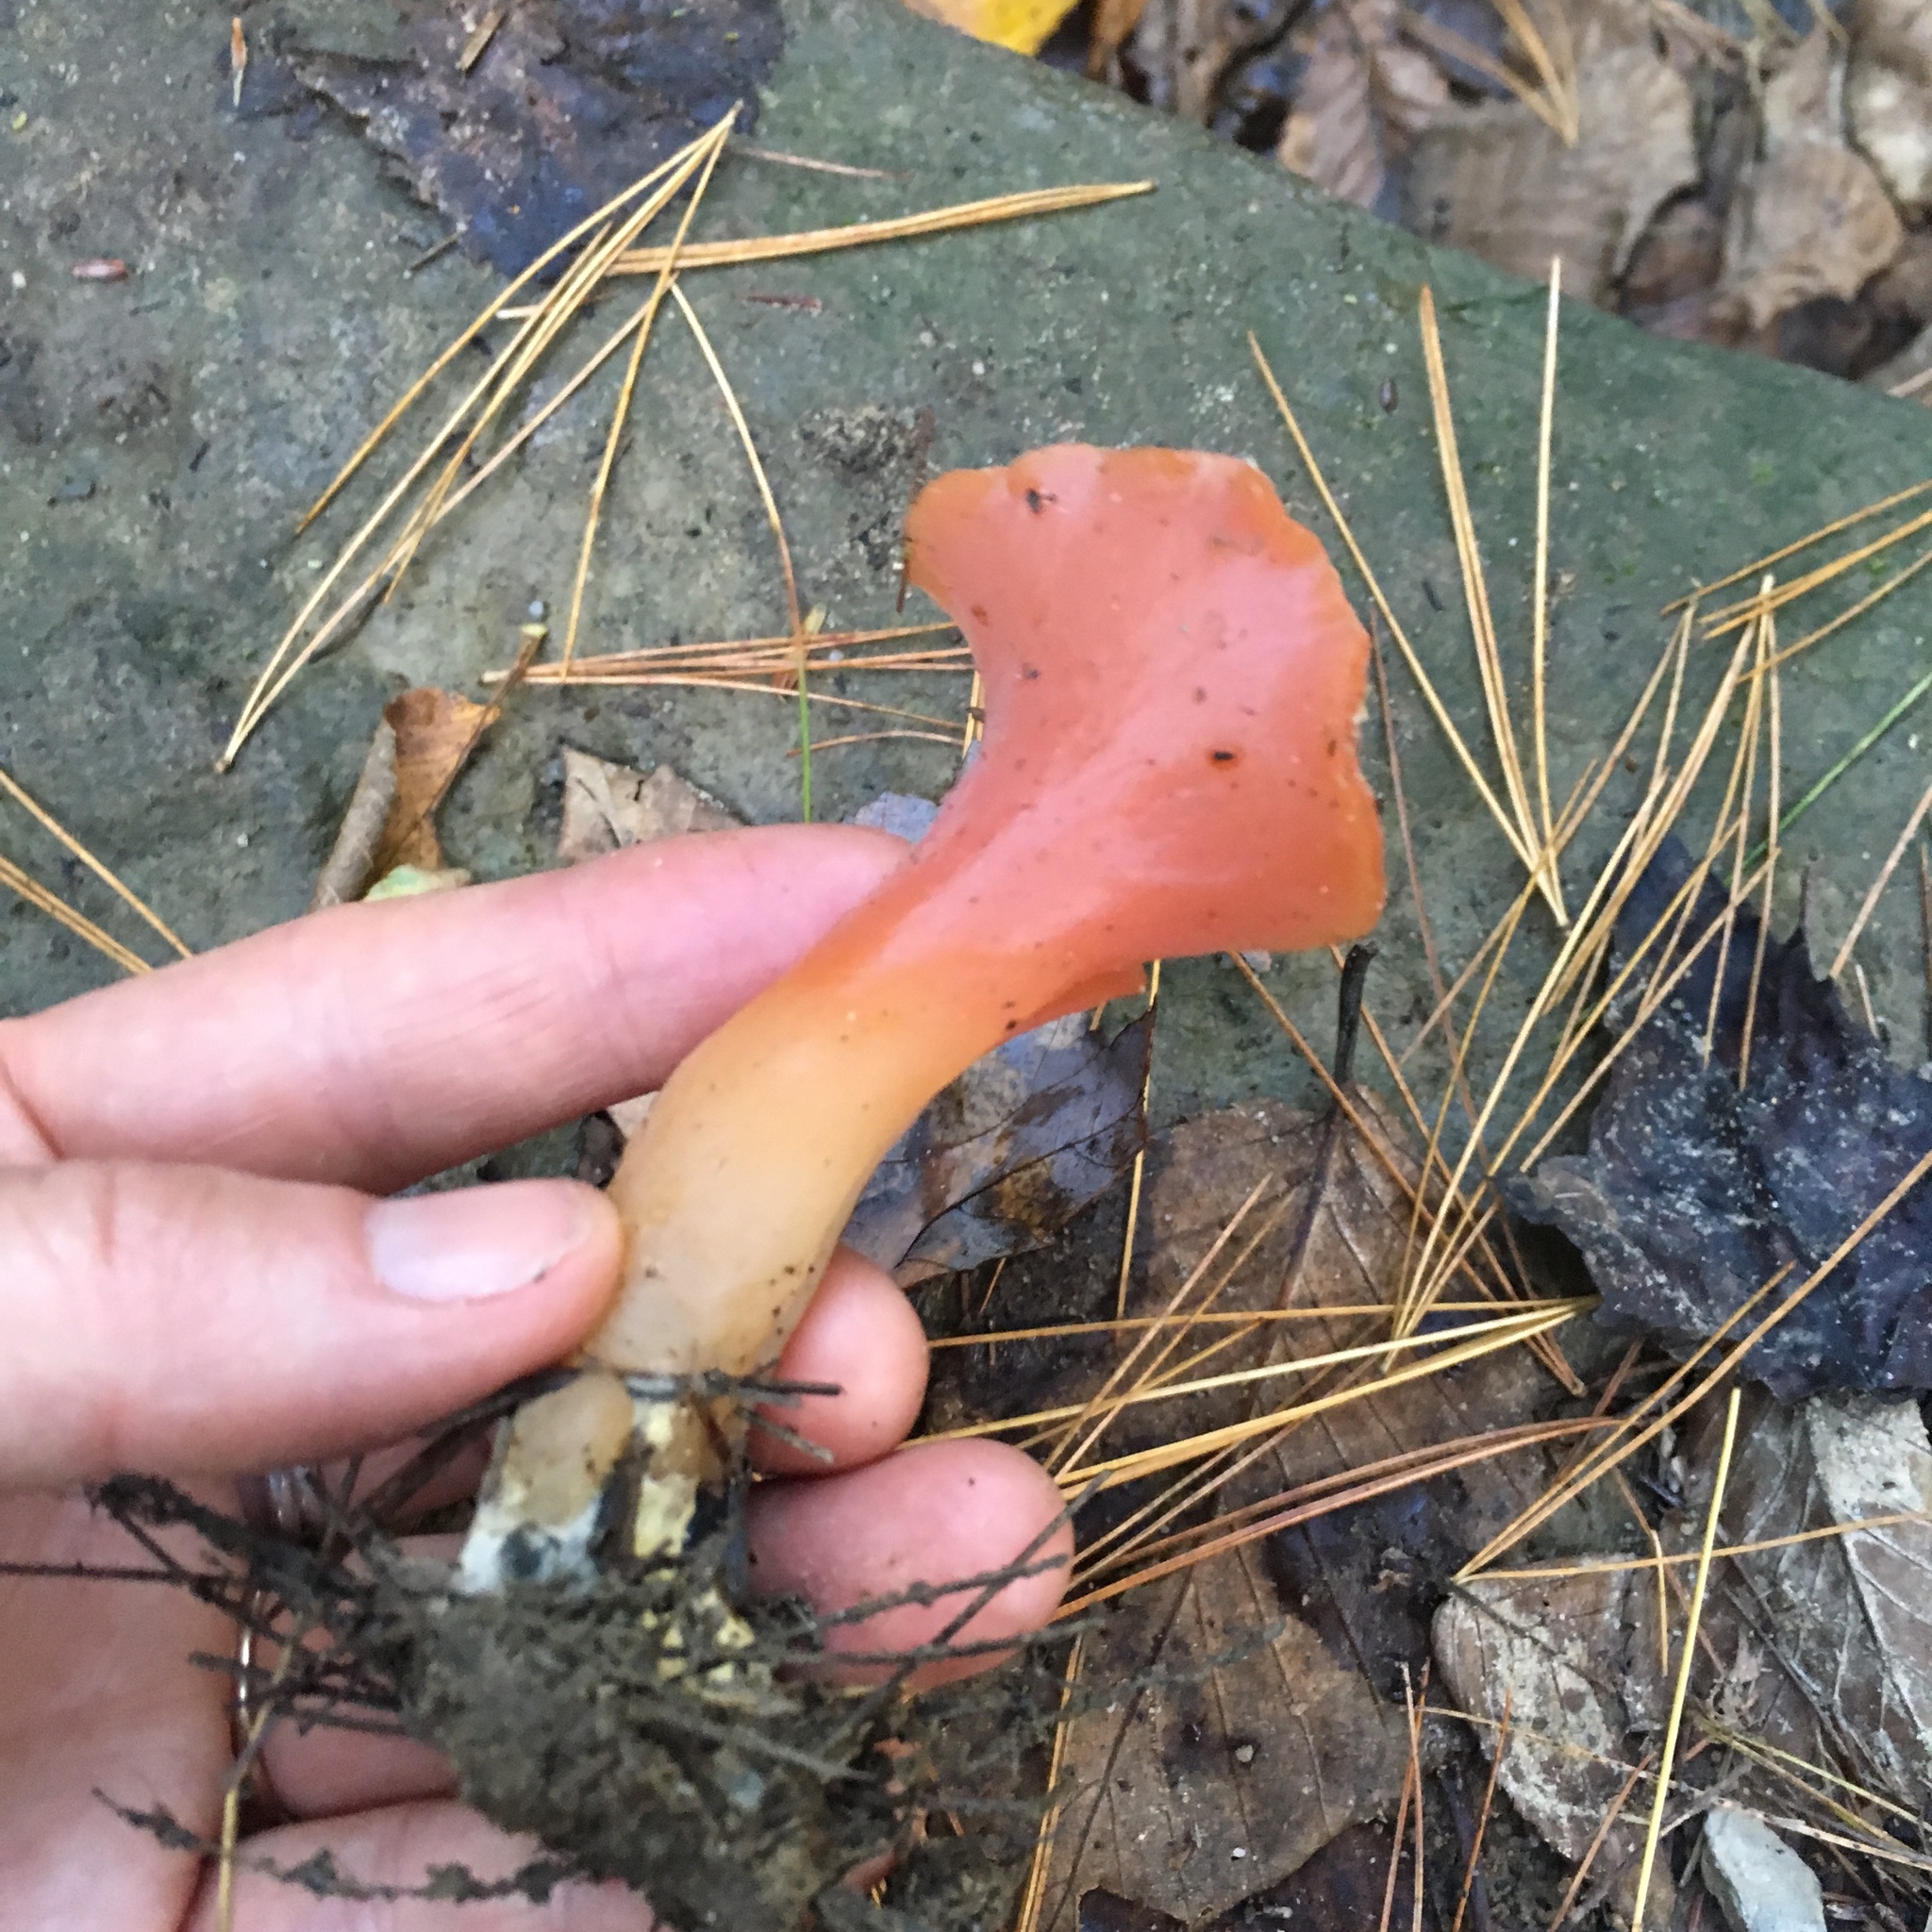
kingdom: Fungi
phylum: Basidiomycota
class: Agaricomycetes
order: Auriculariales
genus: Guepinia
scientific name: Guepinia helvelloides
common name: Salmon salad
